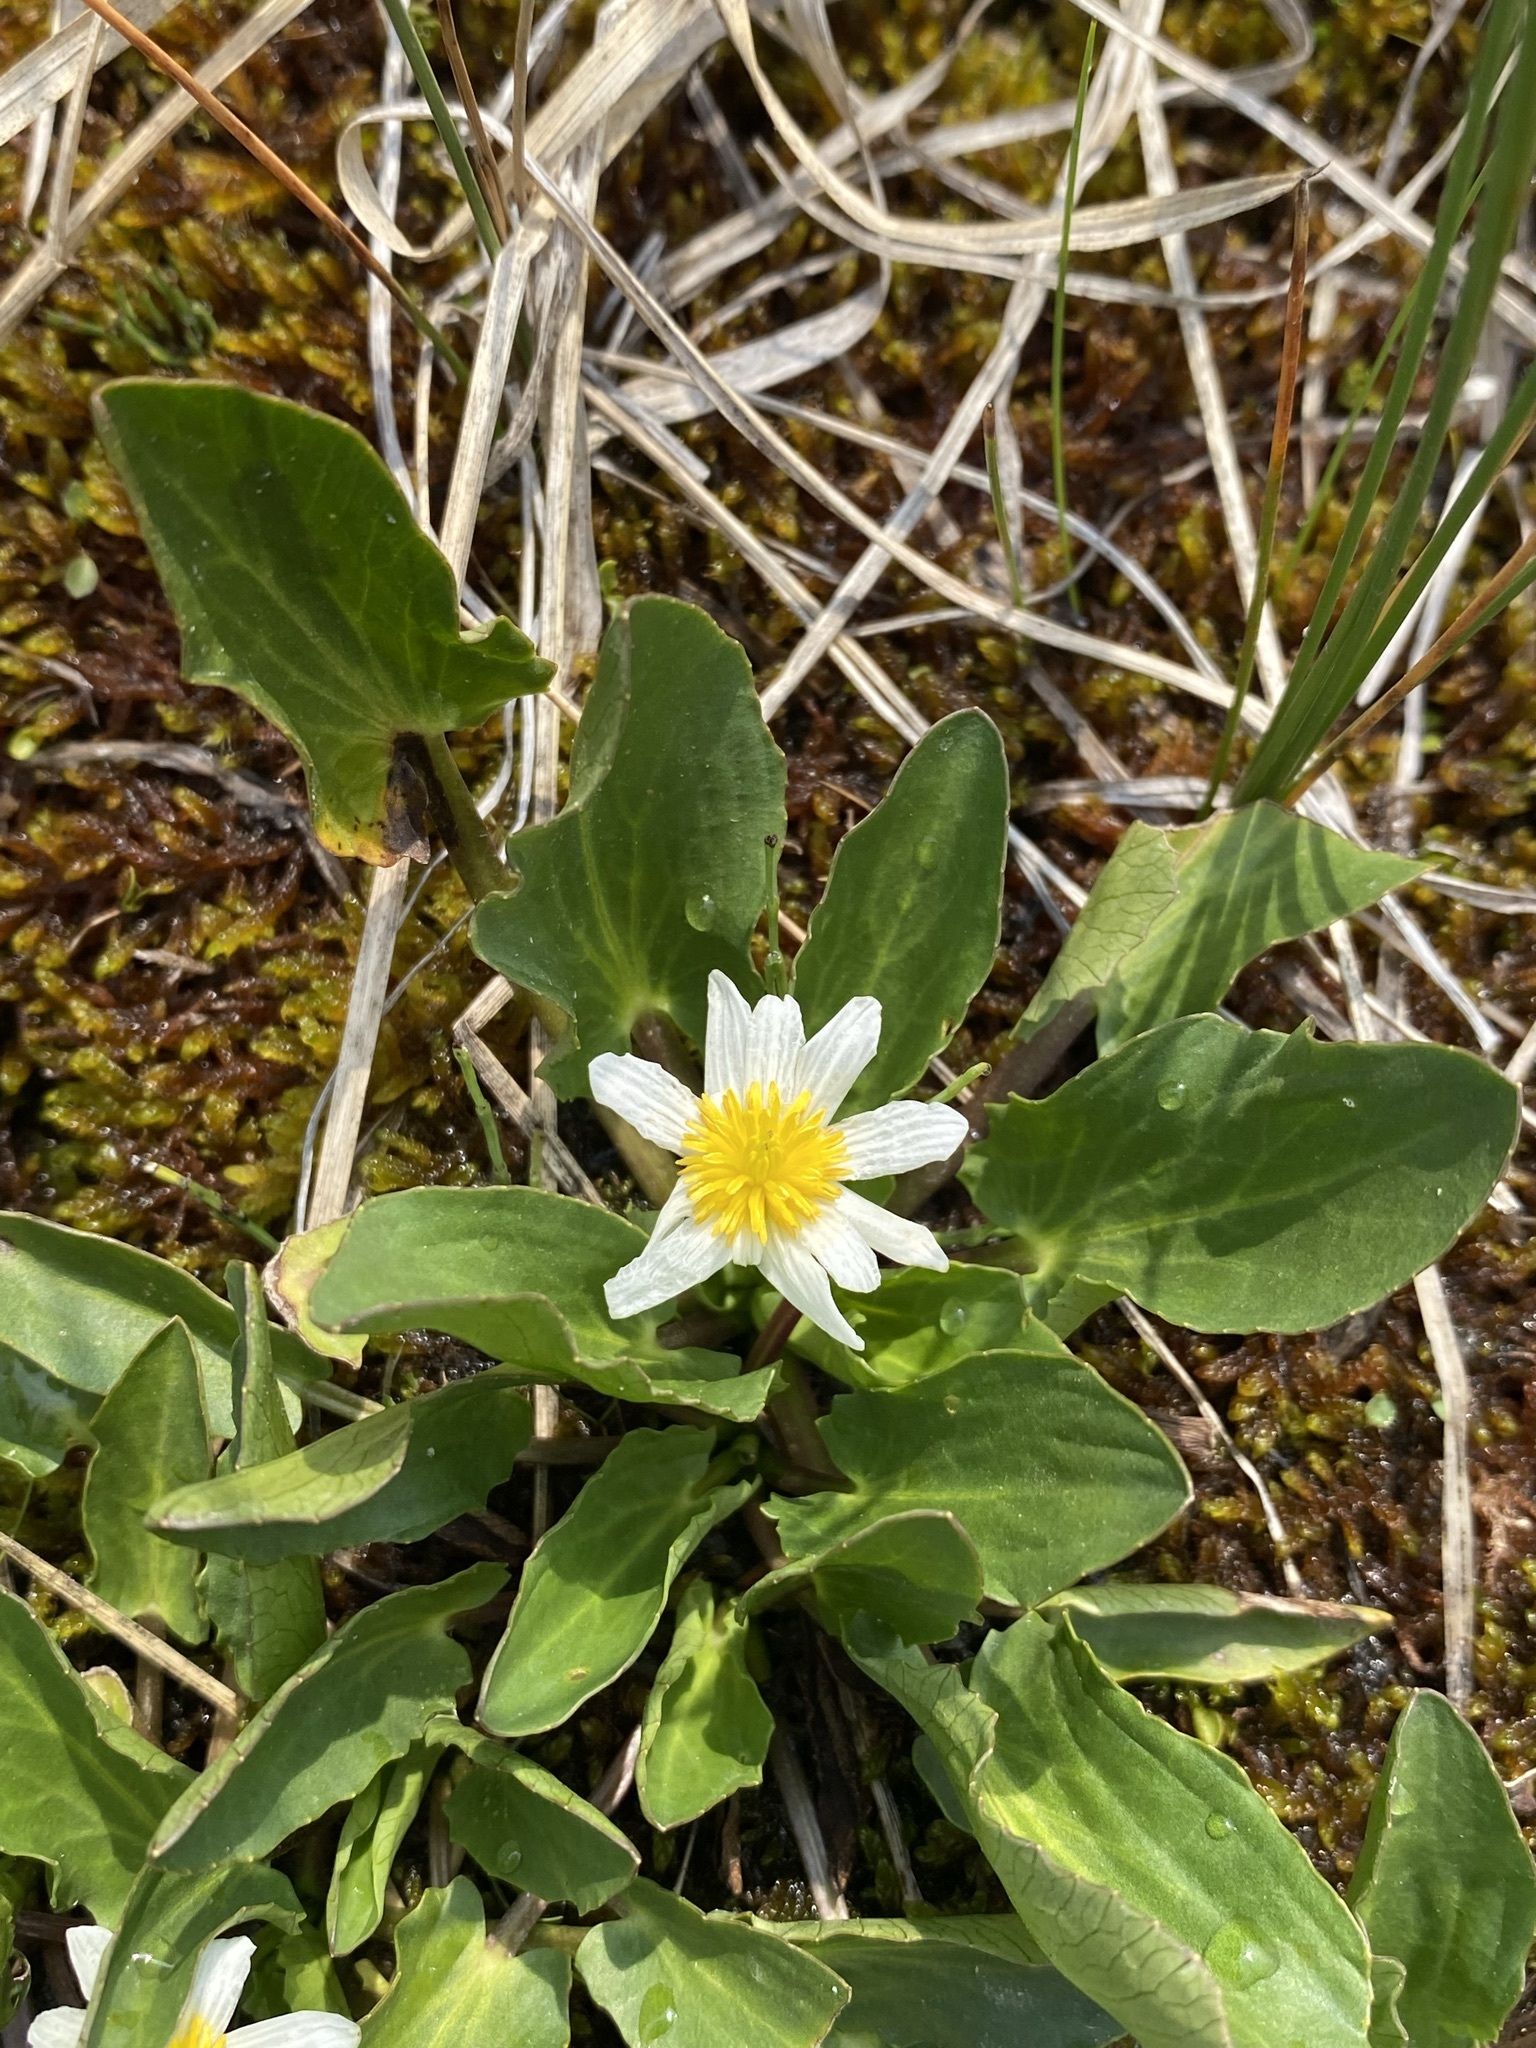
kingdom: Plantae
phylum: Tracheophyta
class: Magnoliopsida
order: Ranunculales
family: Ranunculaceae
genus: Caltha
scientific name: Caltha leptosepala
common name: Elkslip
